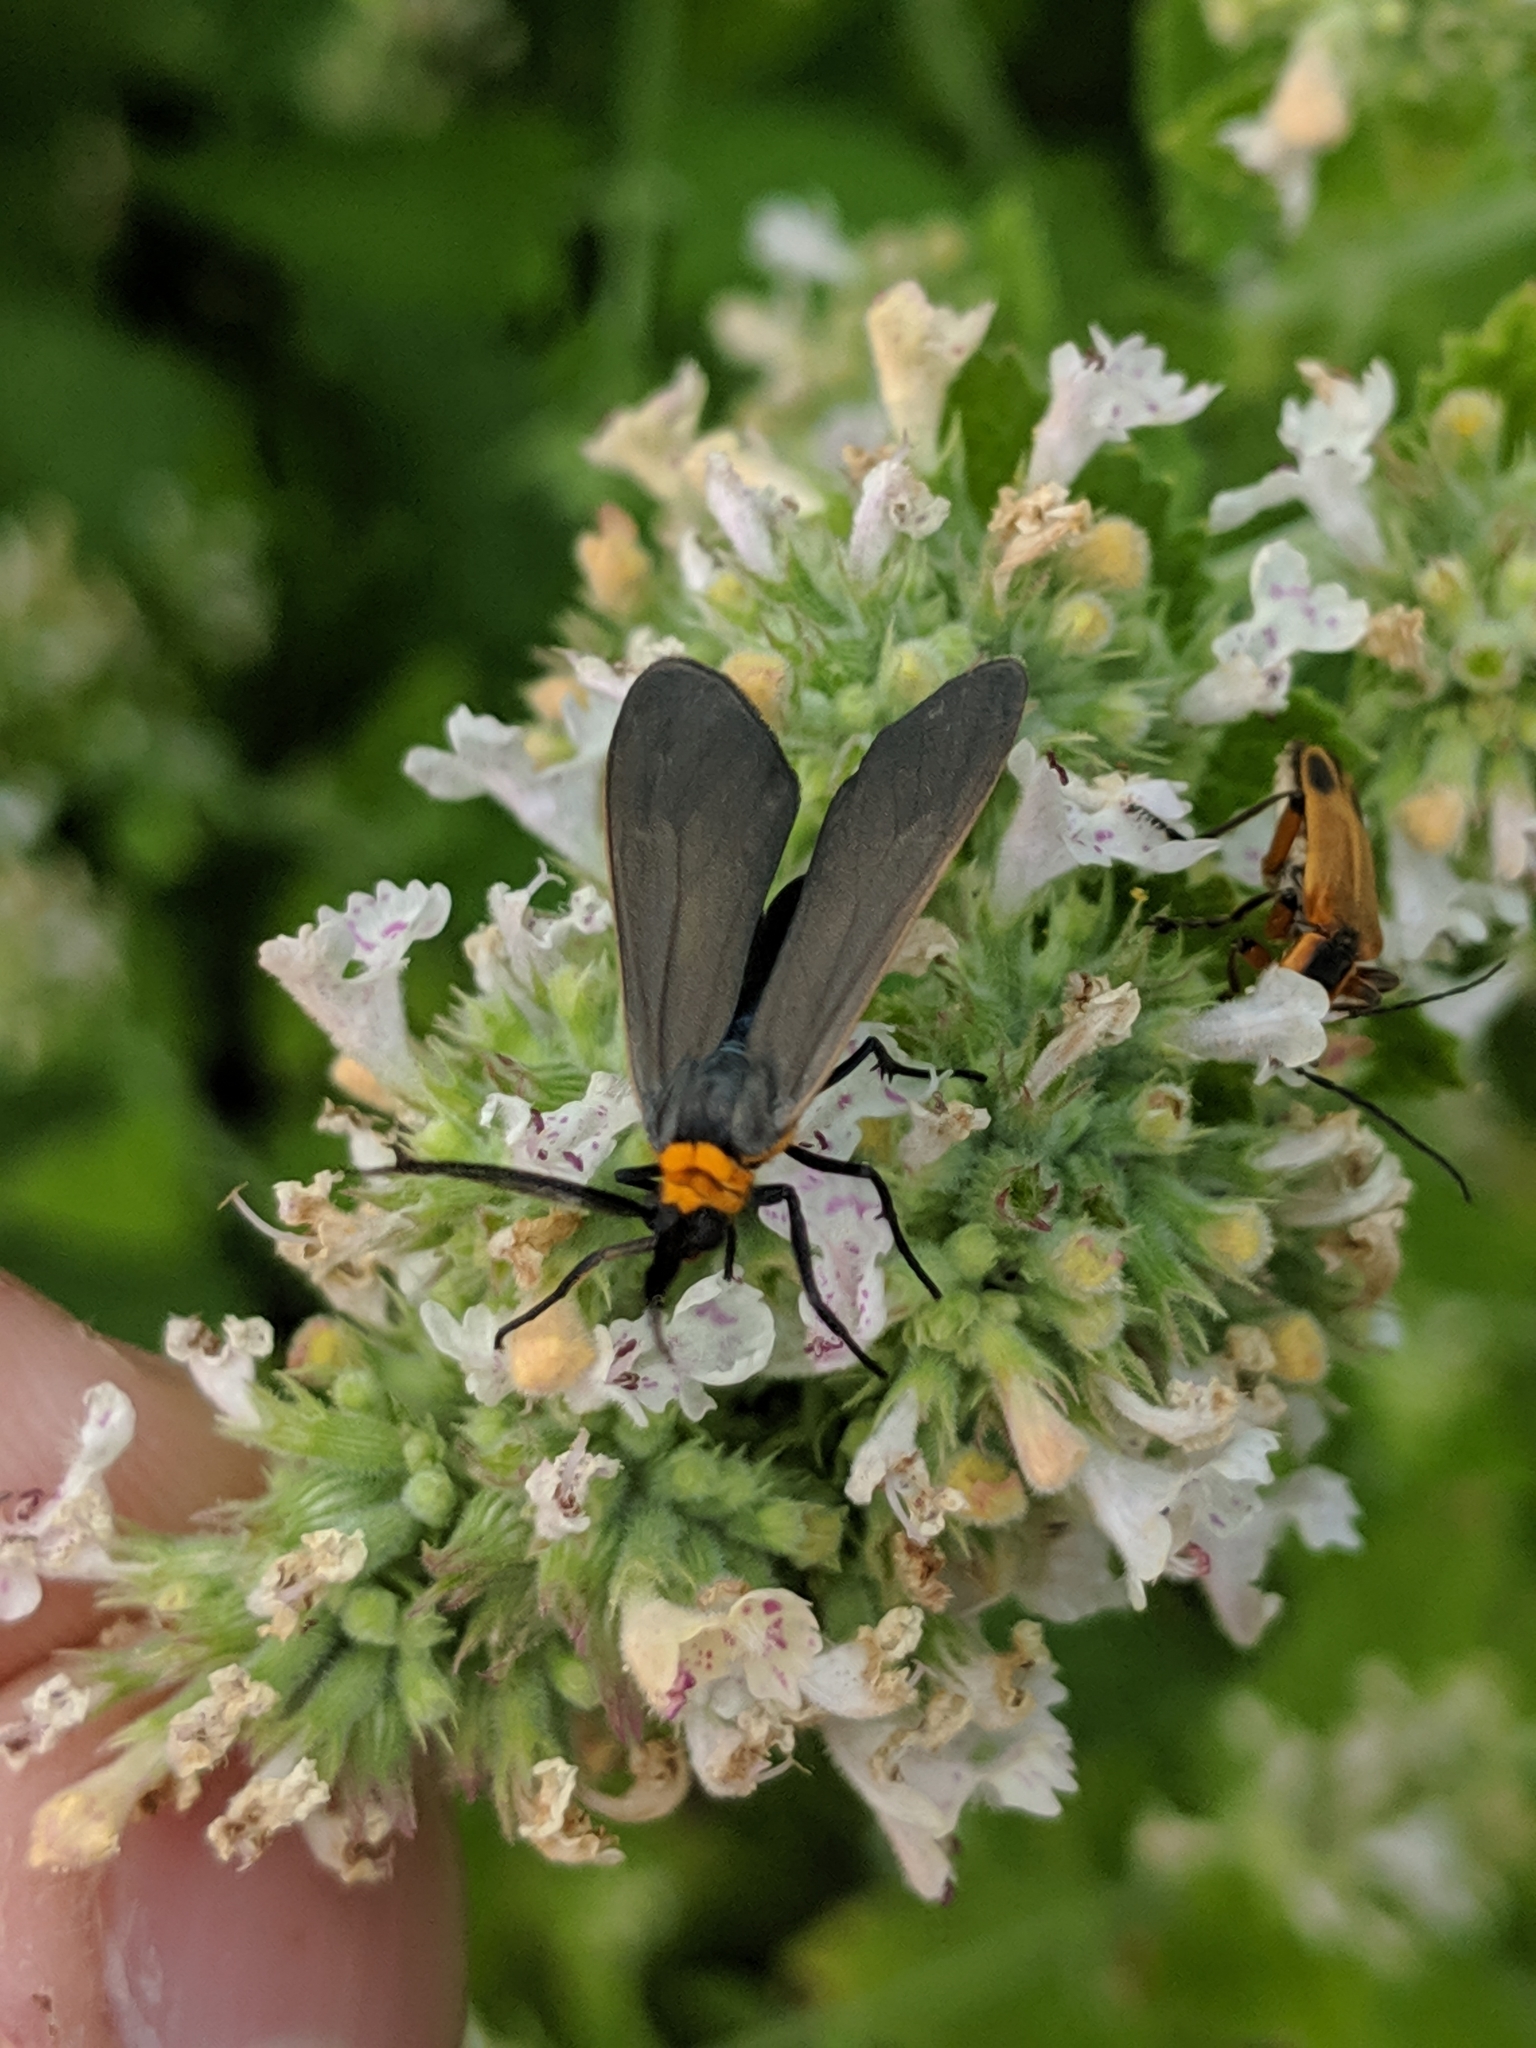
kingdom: Animalia
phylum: Arthropoda
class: Insecta
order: Lepidoptera
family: Erebidae
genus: Cisseps
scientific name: Cisseps fulvicollis
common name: Yellow-collared scape moth
